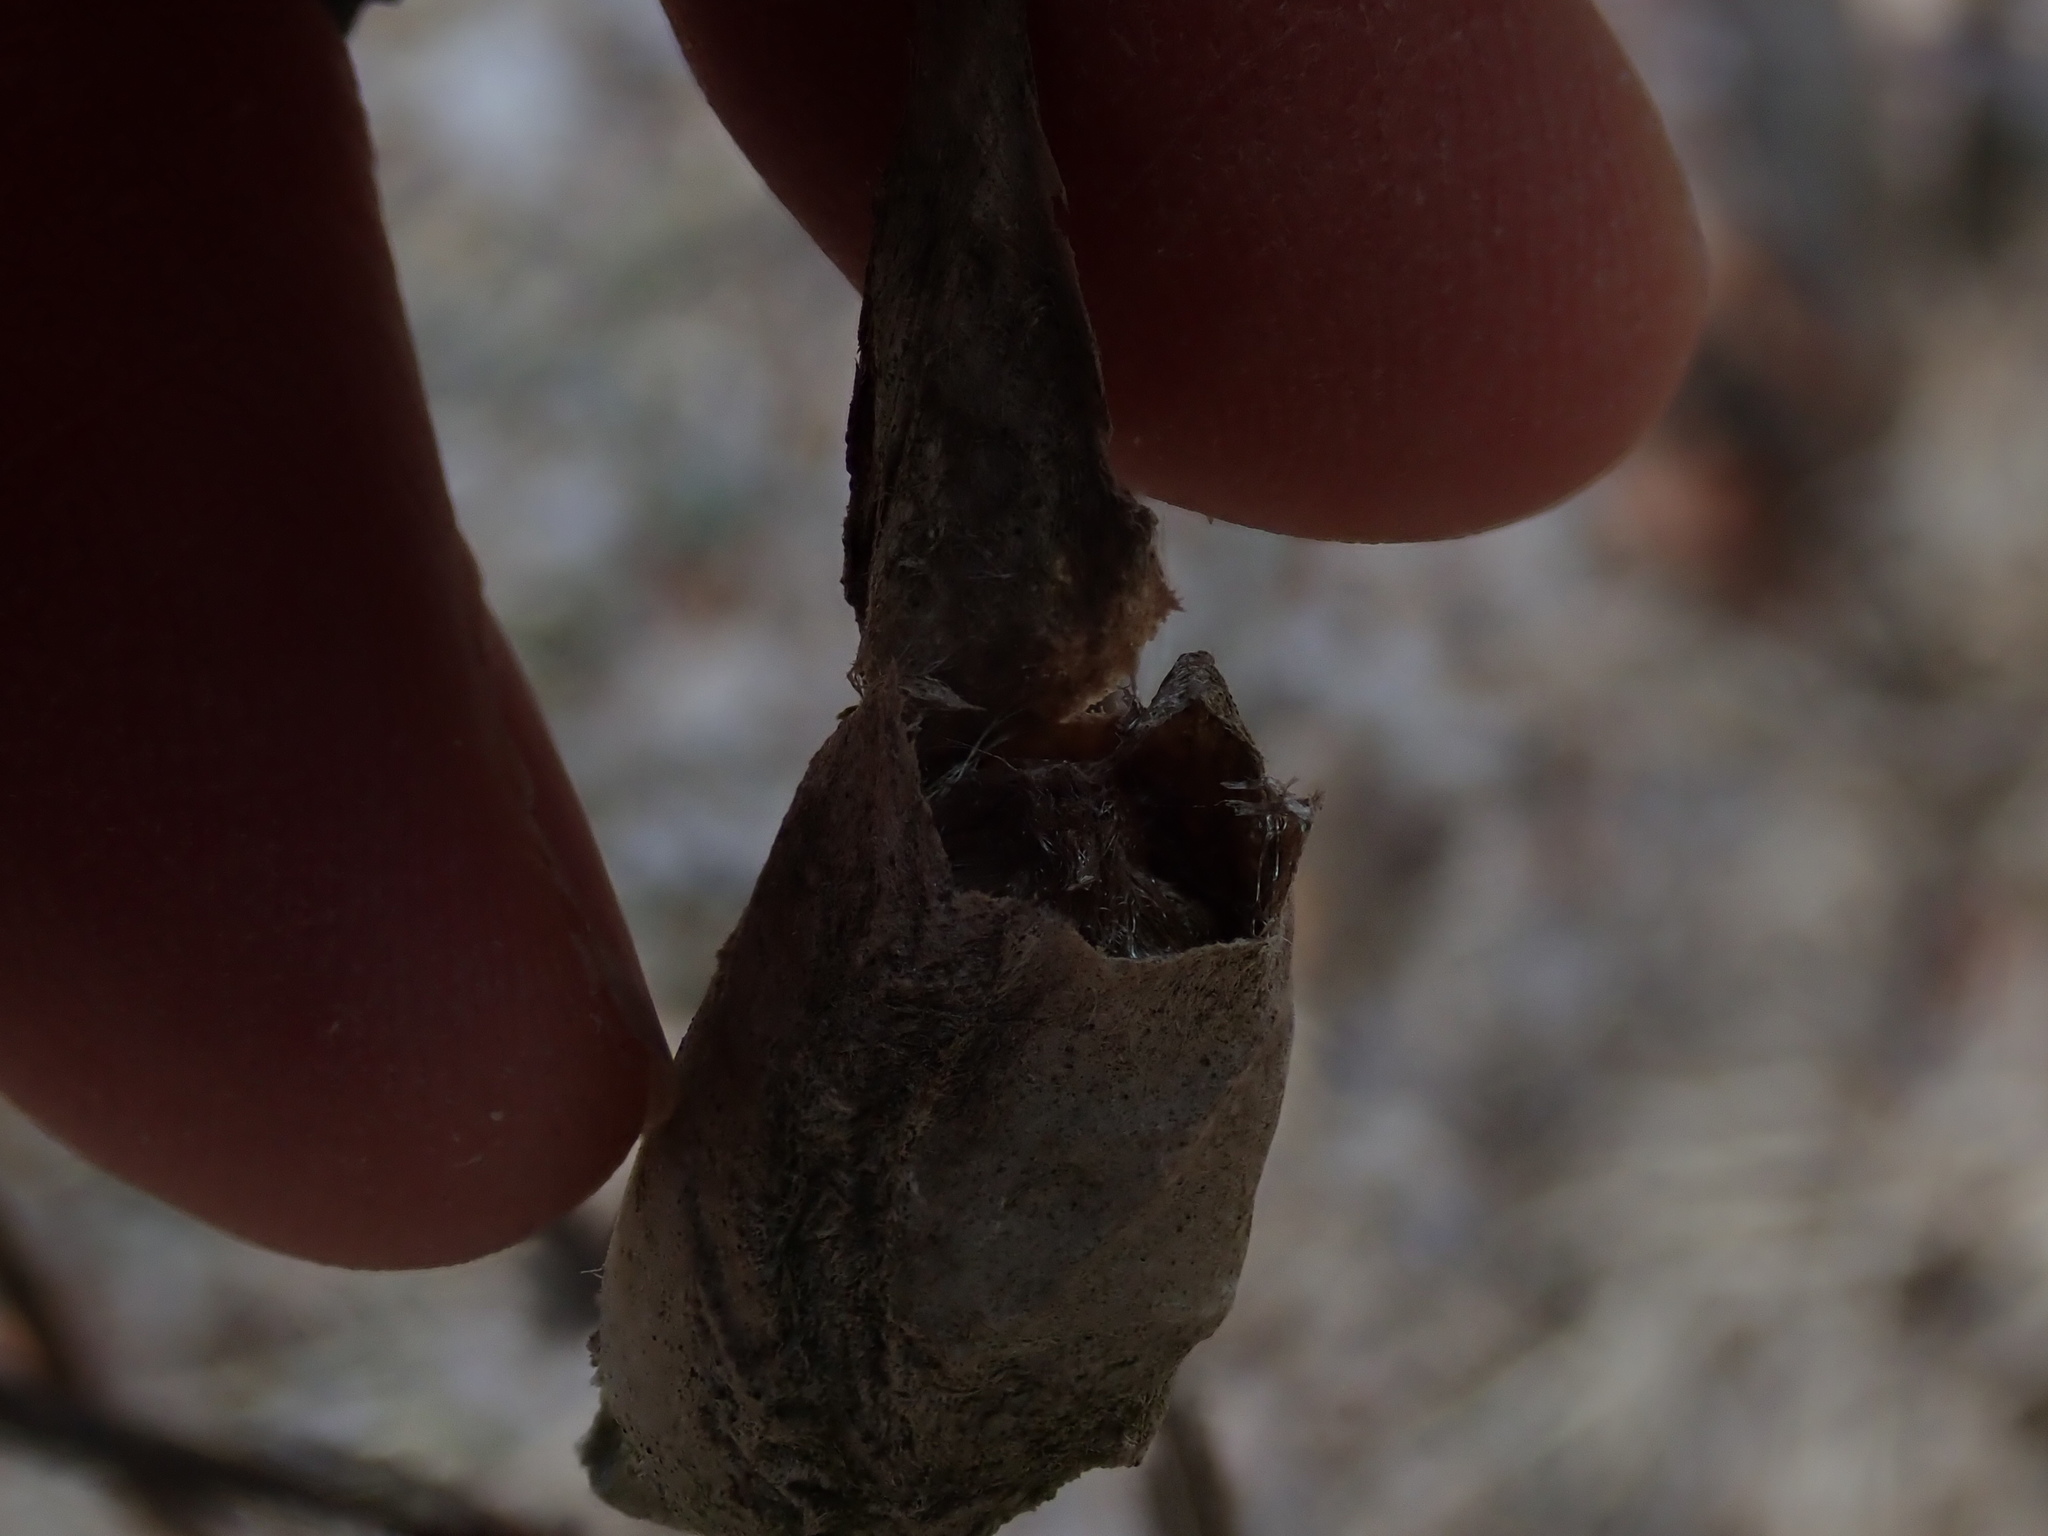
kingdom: Animalia
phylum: Arthropoda
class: Insecta
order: Lepidoptera
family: Saturniidae
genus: Callosamia
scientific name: Callosamia promethea
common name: Promethea silkmoth
